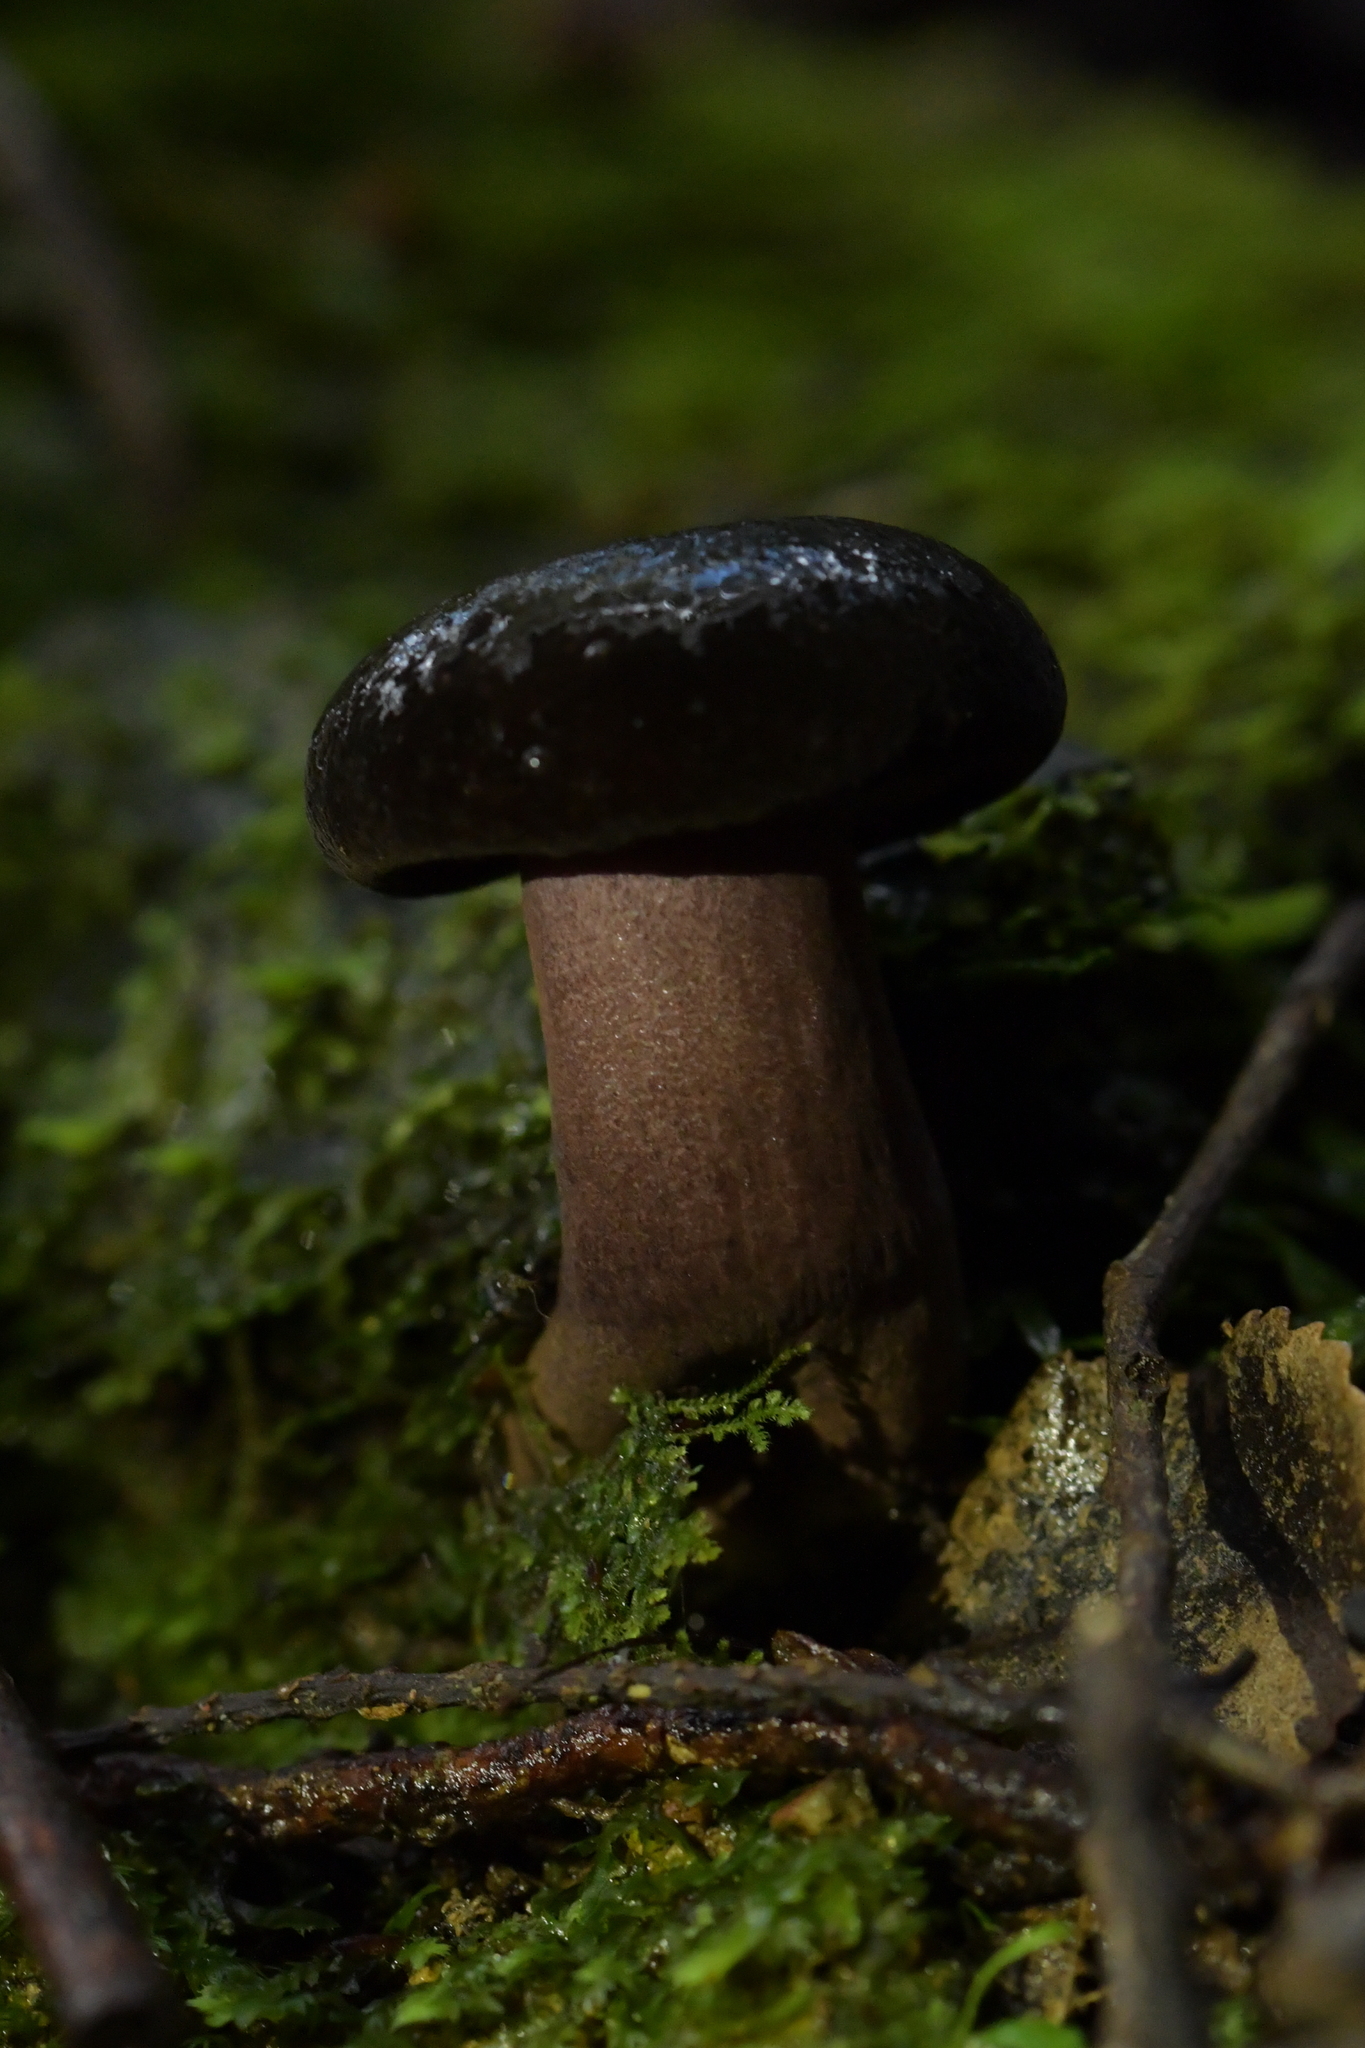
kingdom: Fungi
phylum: Basidiomycota
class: Agaricomycetes
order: Boletales
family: Boletaceae
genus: Porphyrellus
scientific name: Porphyrellus formosus
